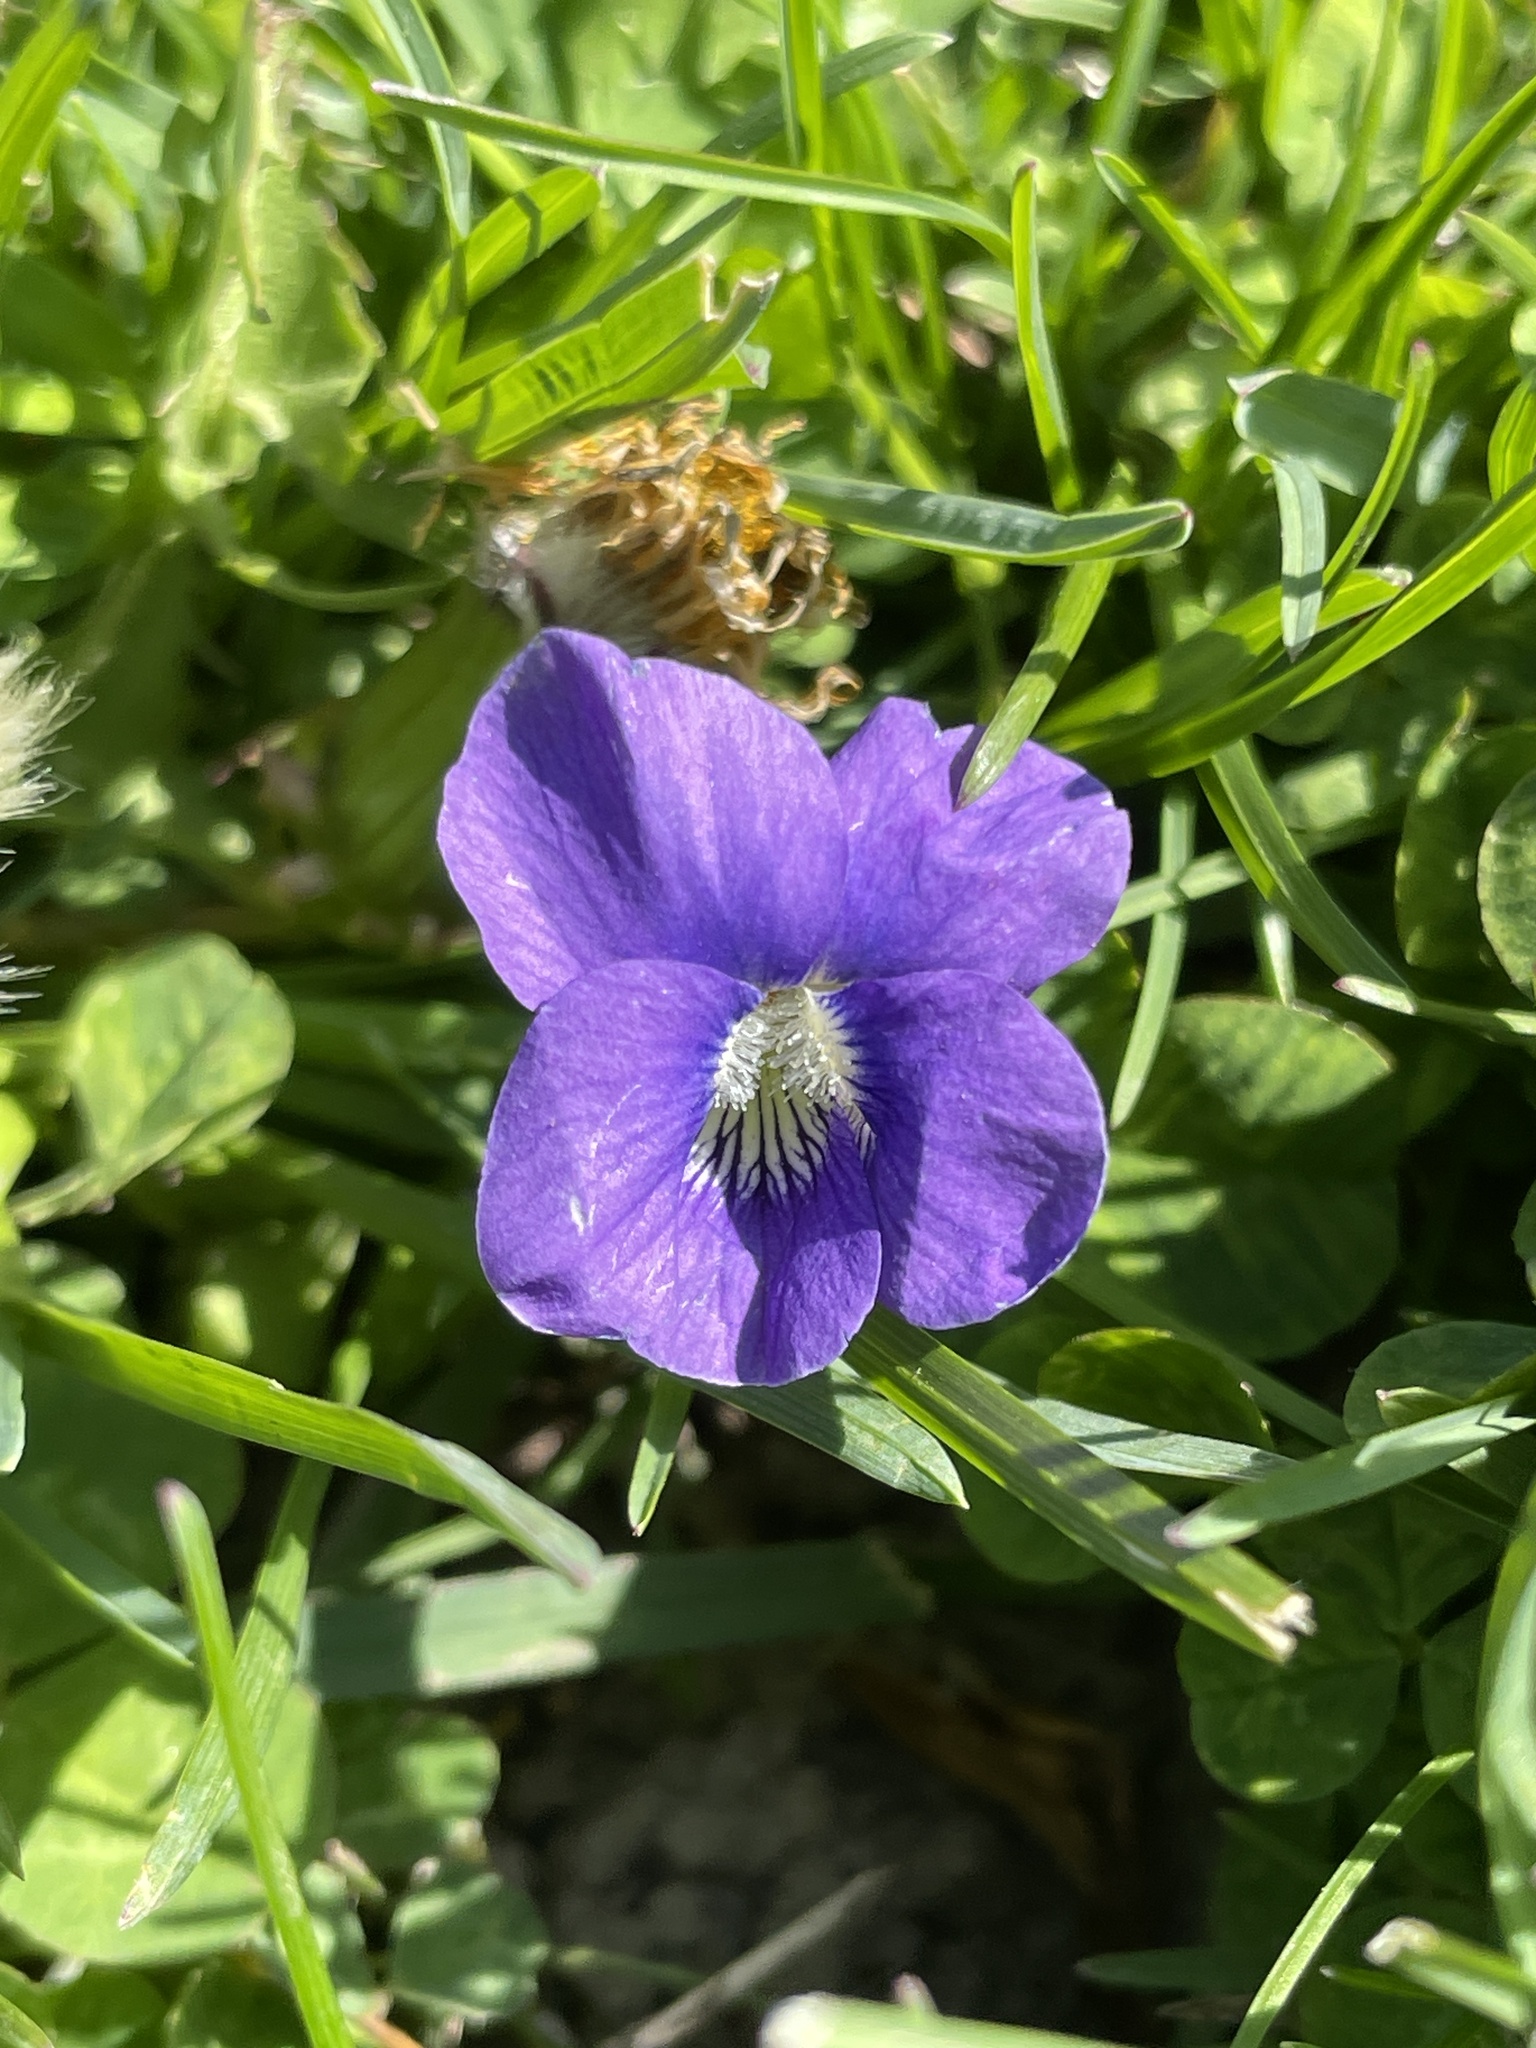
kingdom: Plantae
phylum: Tracheophyta
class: Magnoliopsida
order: Malpighiales
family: Violaceae
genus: Viola
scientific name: Viola sororia
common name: Dooryard violet
